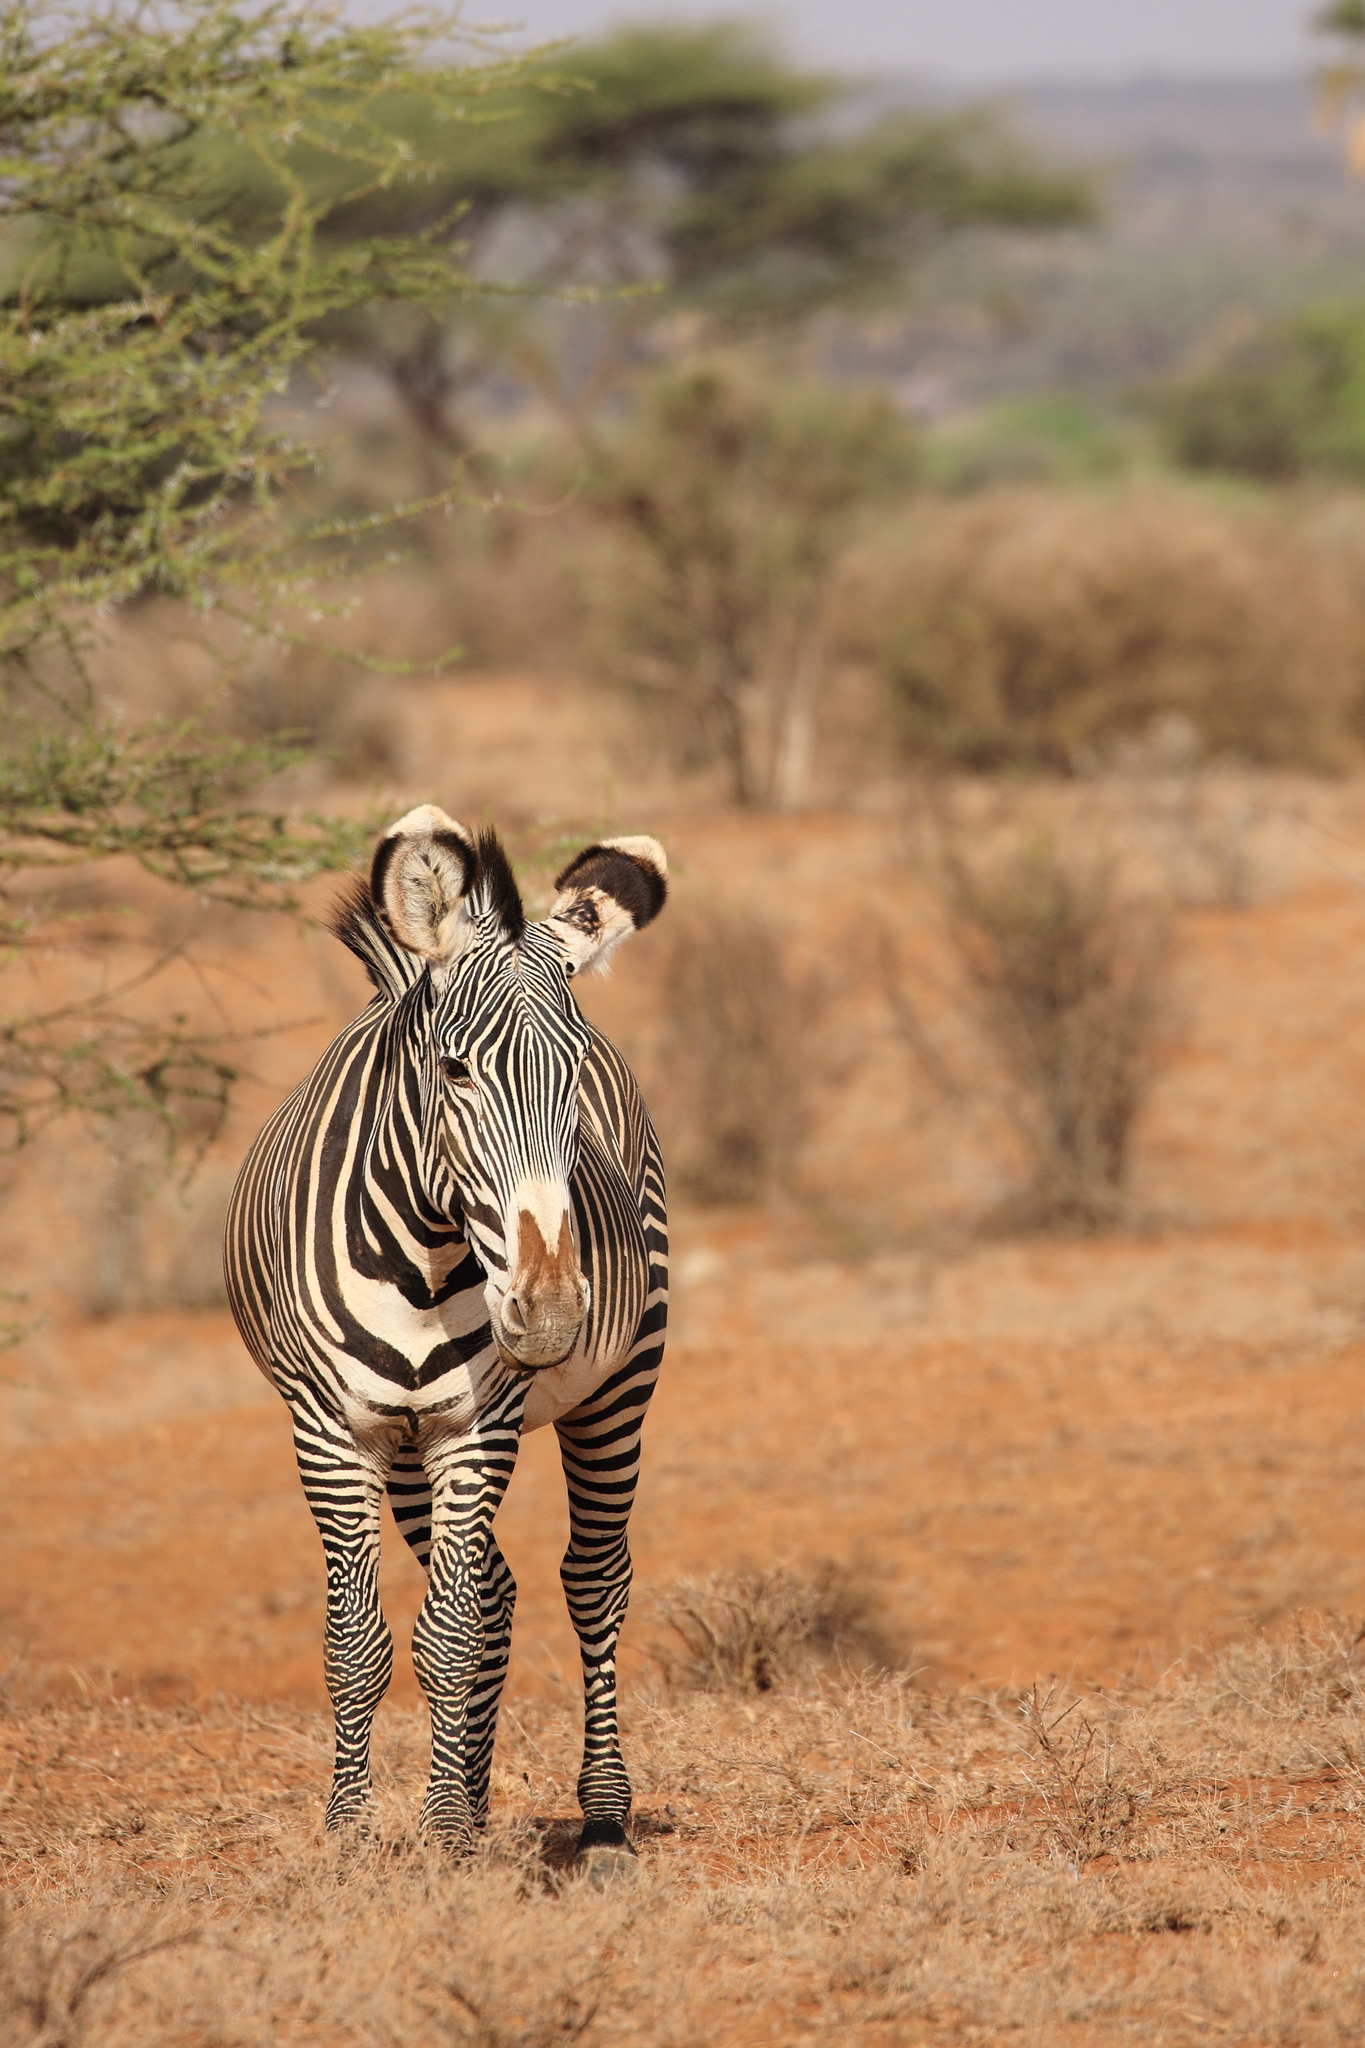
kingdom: Animalia
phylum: Chordata
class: Mammalia
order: Perissodactyla
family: Equidae
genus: Equus
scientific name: Equus grevyi
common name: Grevy's zebra
